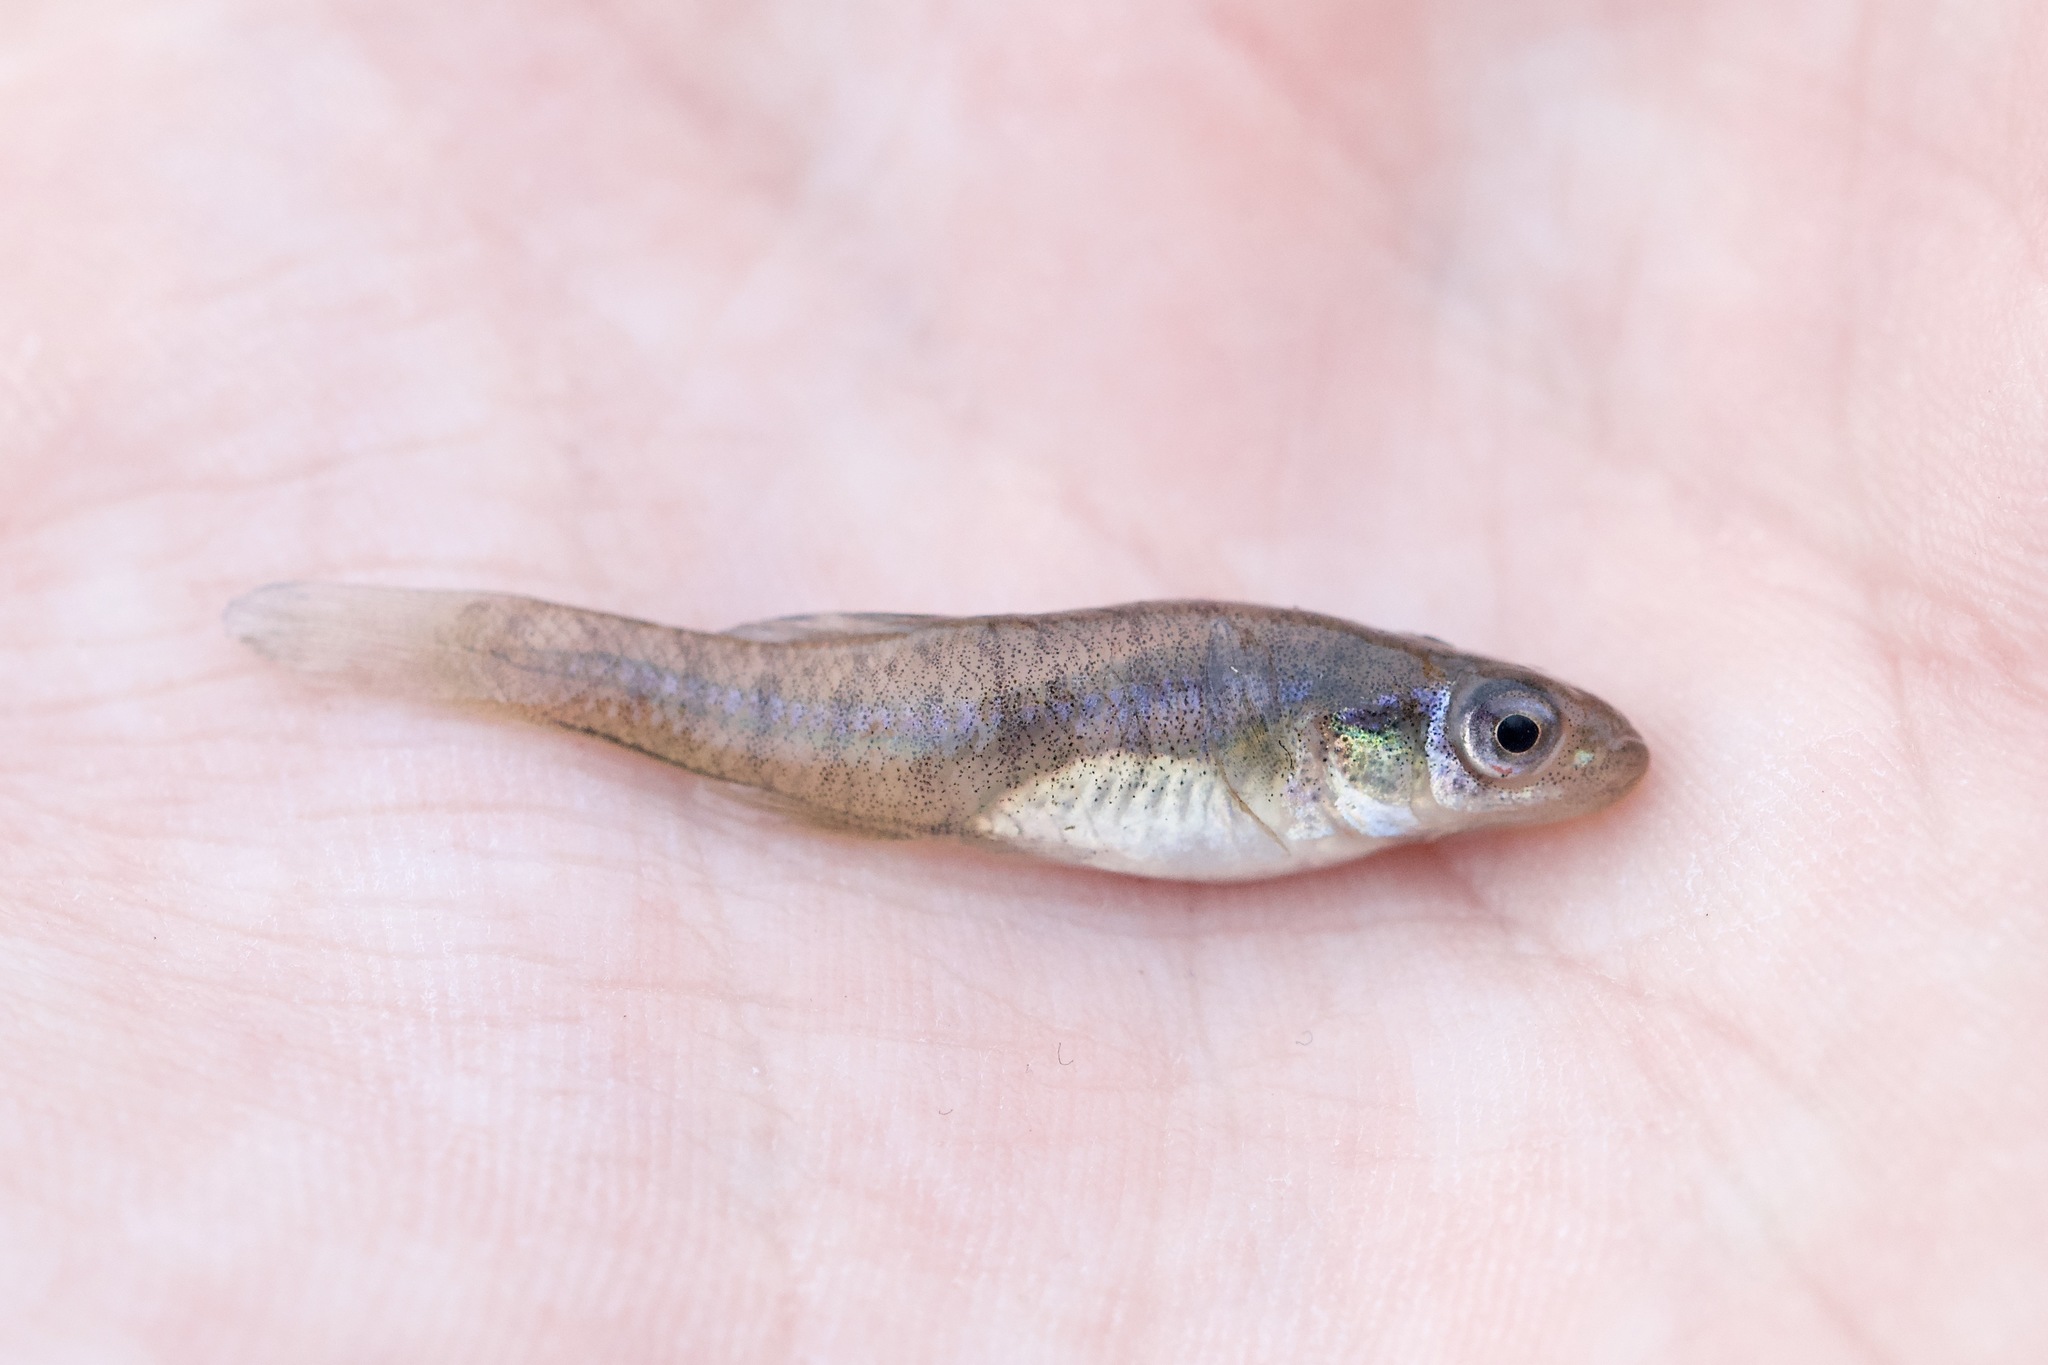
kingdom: Animalia
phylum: Chordata
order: Cyprinodontiformes
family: Fundulidae
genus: Fundulus
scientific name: Fundulus diaphanus
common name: Banded killifish
